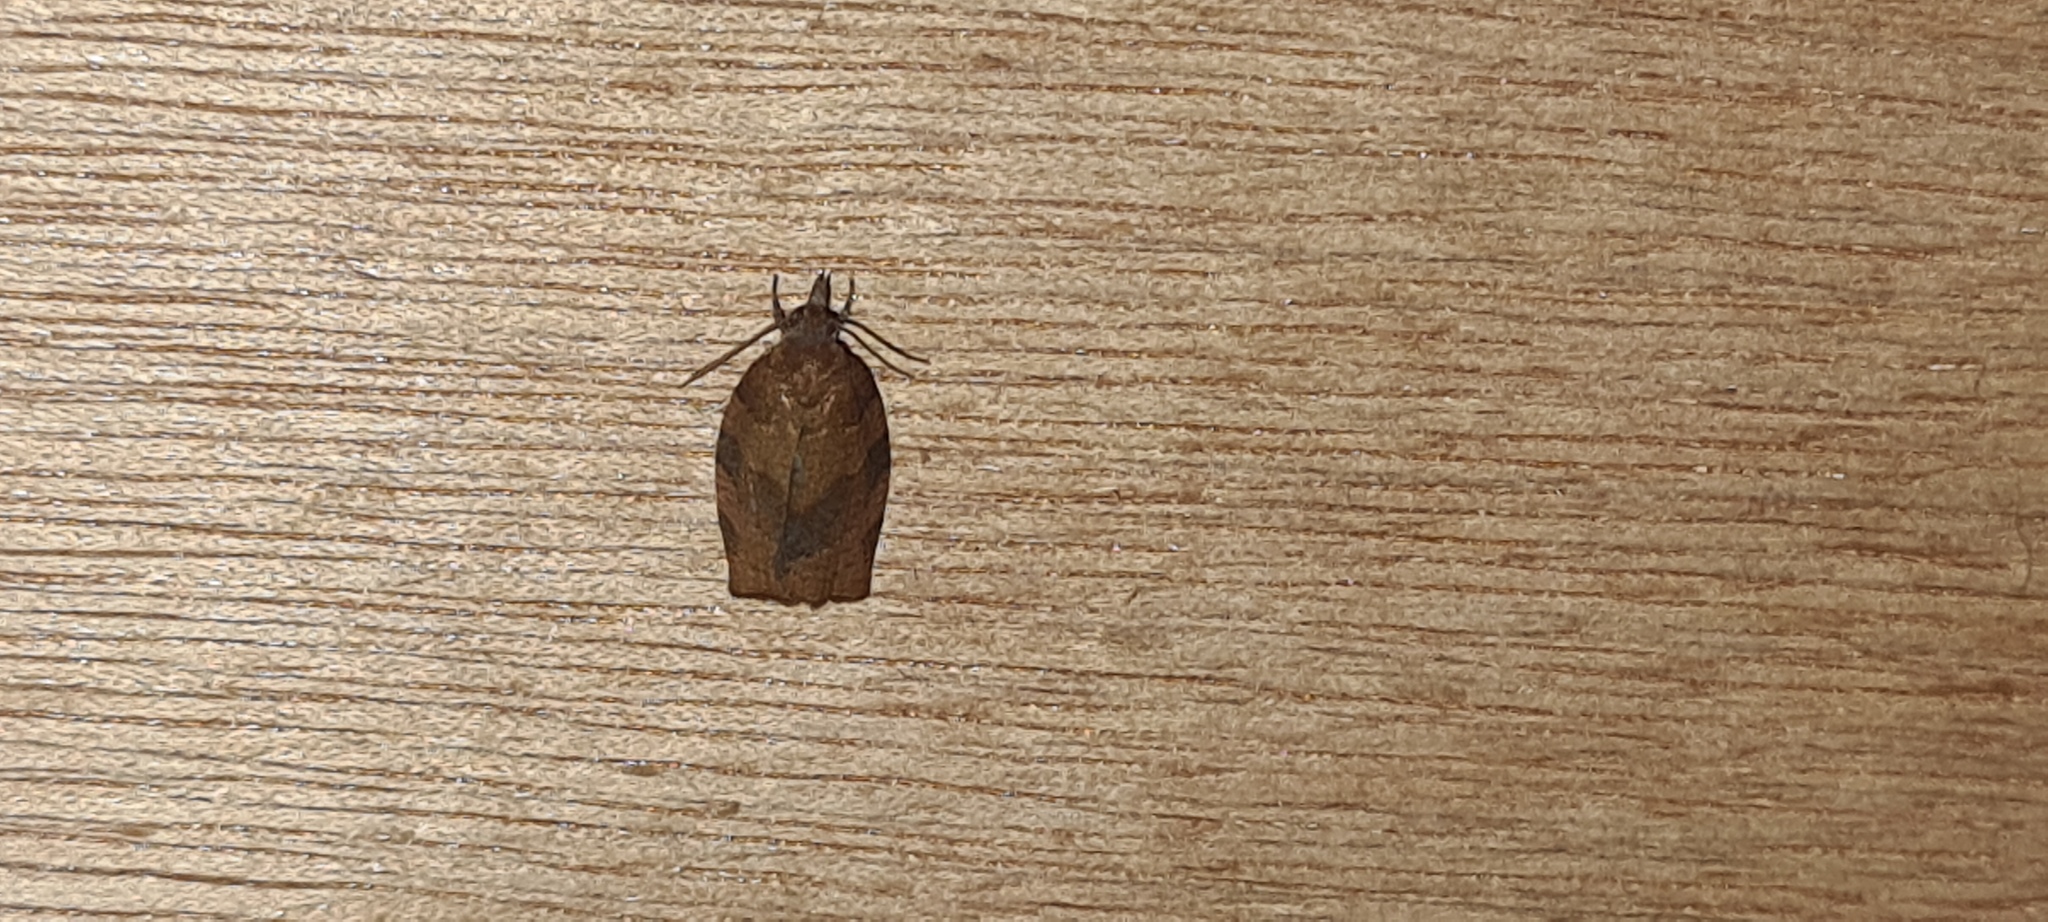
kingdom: Animalia
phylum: Arthropoda
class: Insecta
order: Lepidoptera
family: Tortricidae
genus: Pandemis
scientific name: Pandemis heparana
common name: Dark fruit-tree tortrix
